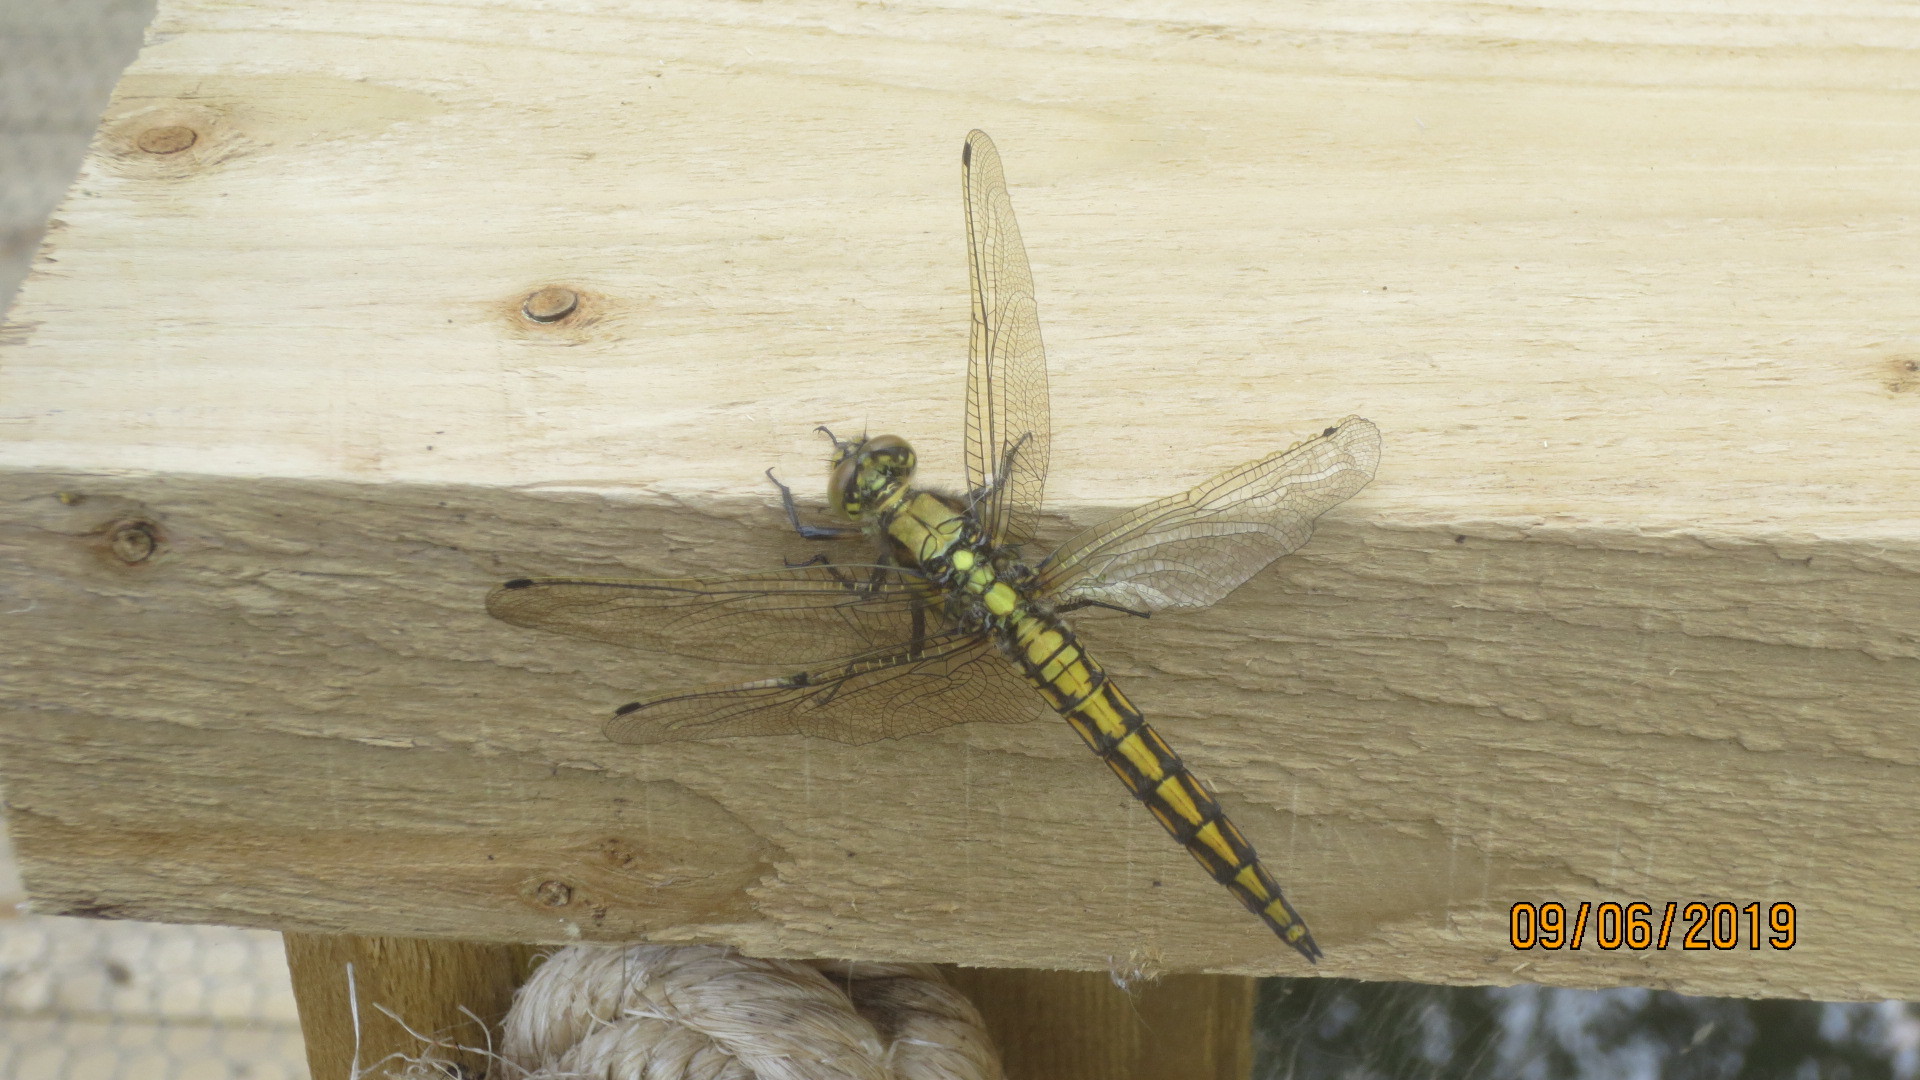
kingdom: Animalia
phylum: Arthropoda
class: Insecta
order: Odonata
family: Libellulidae
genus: Orthetrum
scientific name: Orthetrum cancellatum
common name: Black-tailed skimmer
